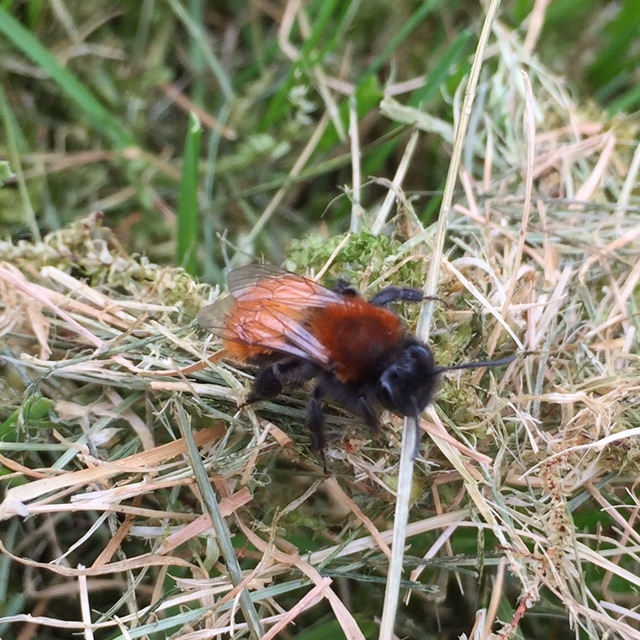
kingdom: Animalia
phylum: Arthropoda
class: Insecta
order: Hymenoptera
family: Andrenidae
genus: Andrena
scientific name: Andrena fulva
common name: Tawny mining bee
